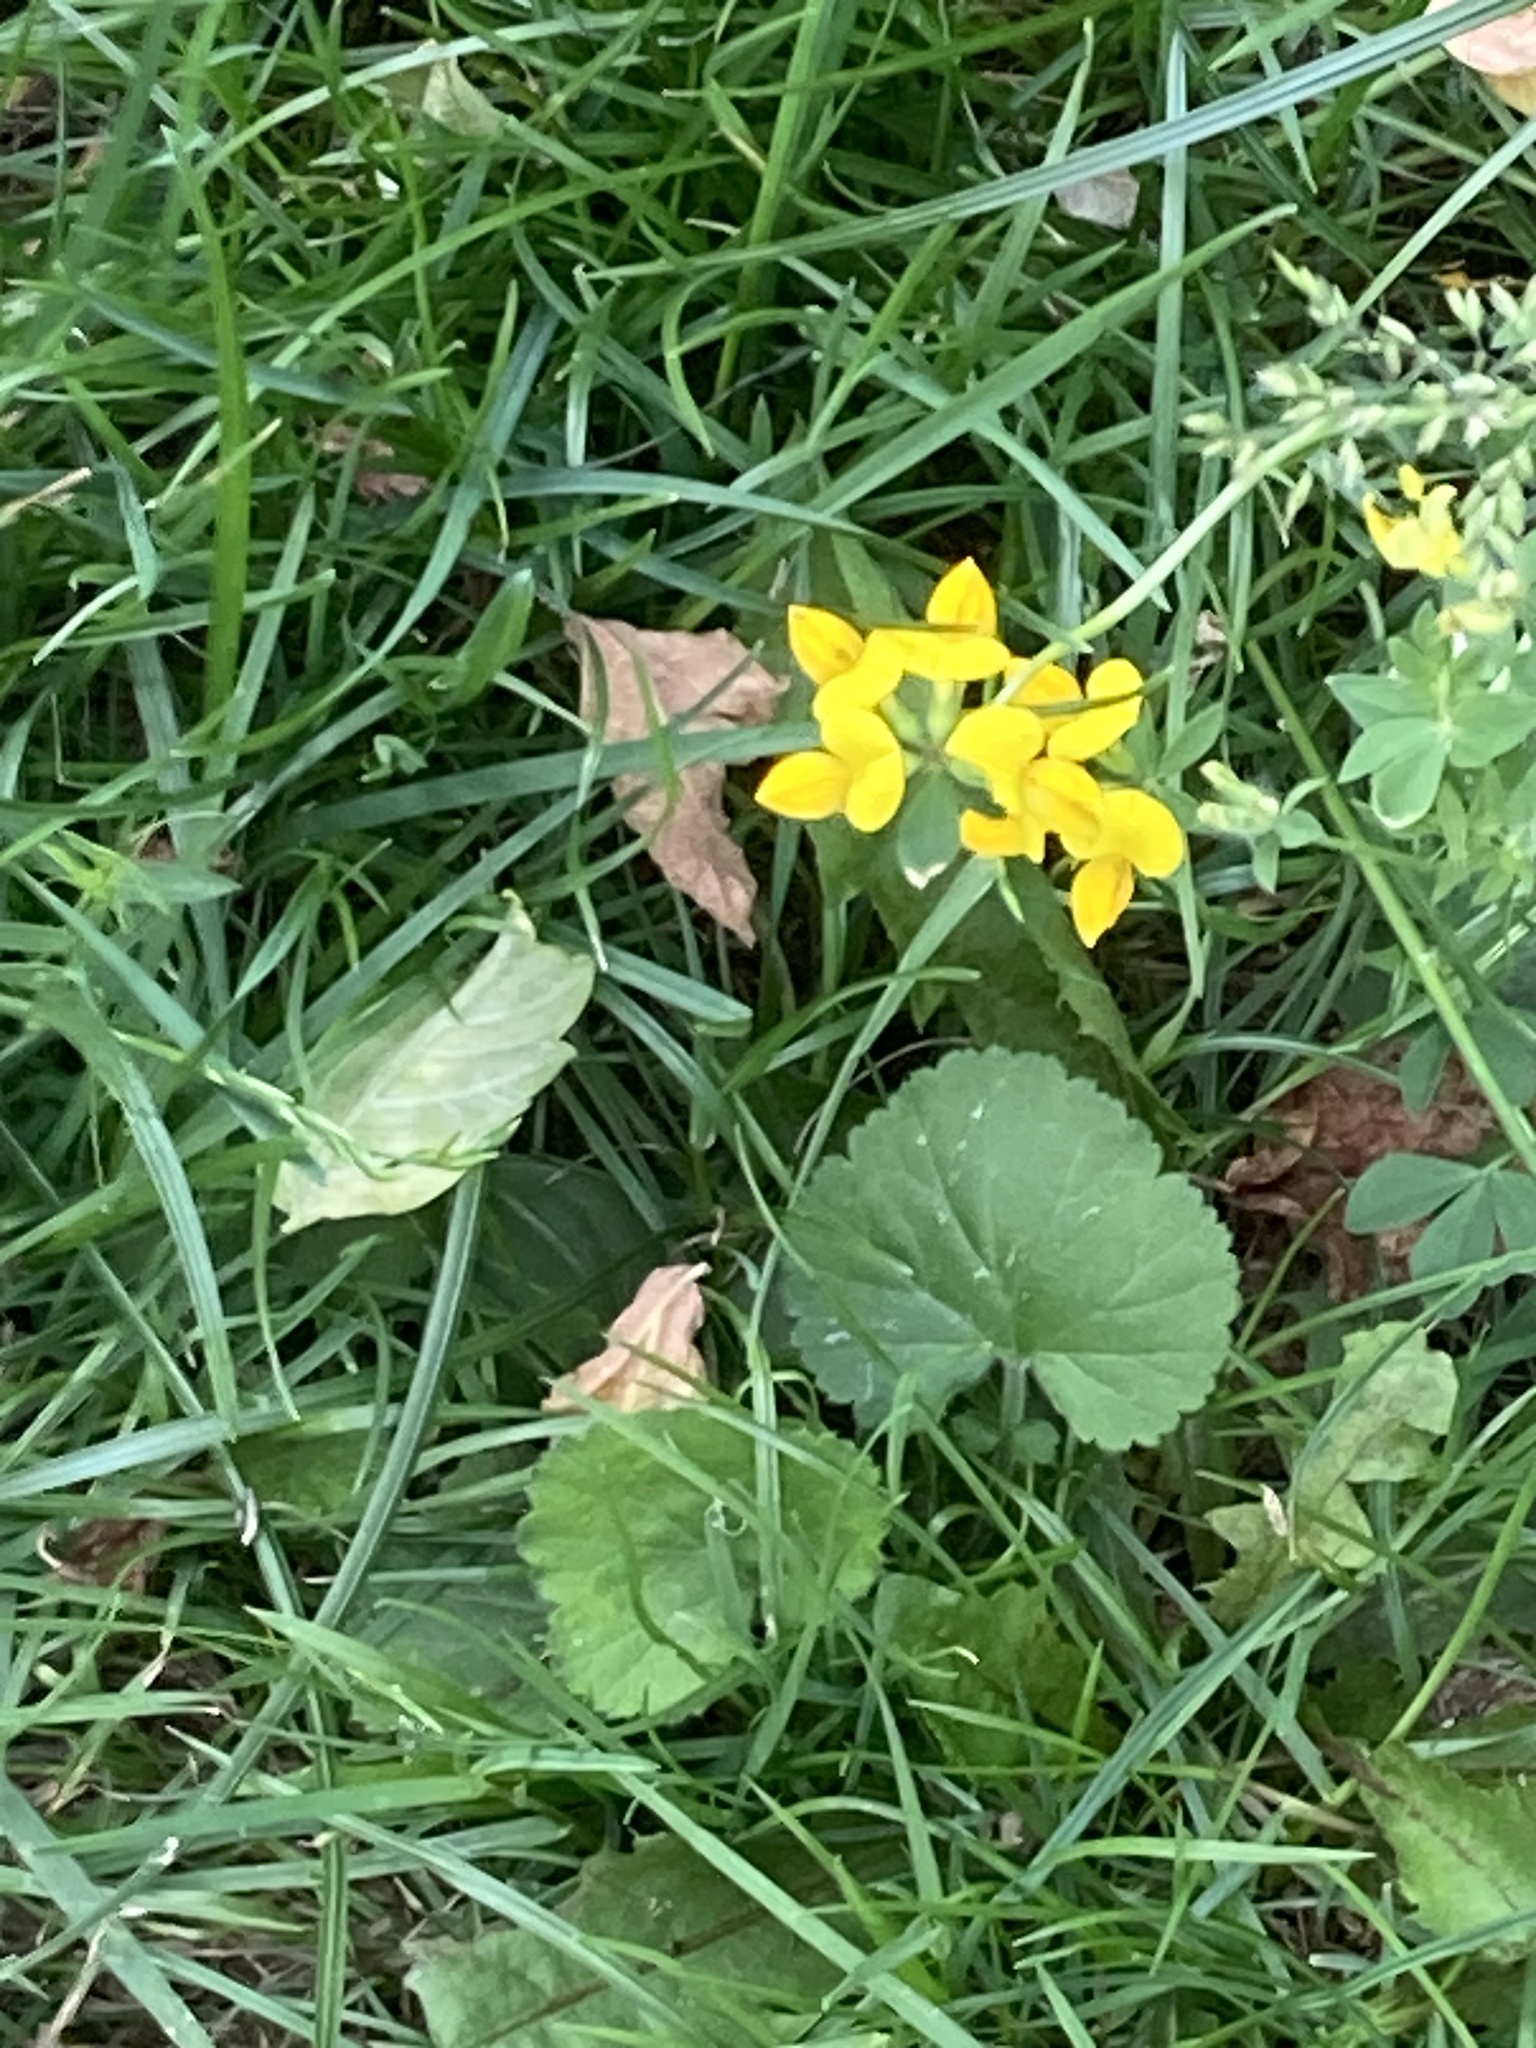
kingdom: Plantae
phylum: Tracheophyta
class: Magnoliopsida
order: Fabales
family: Fabaceae
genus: Lotus
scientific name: Lotus corniculatus
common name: Common bird's-foot-trefoil
